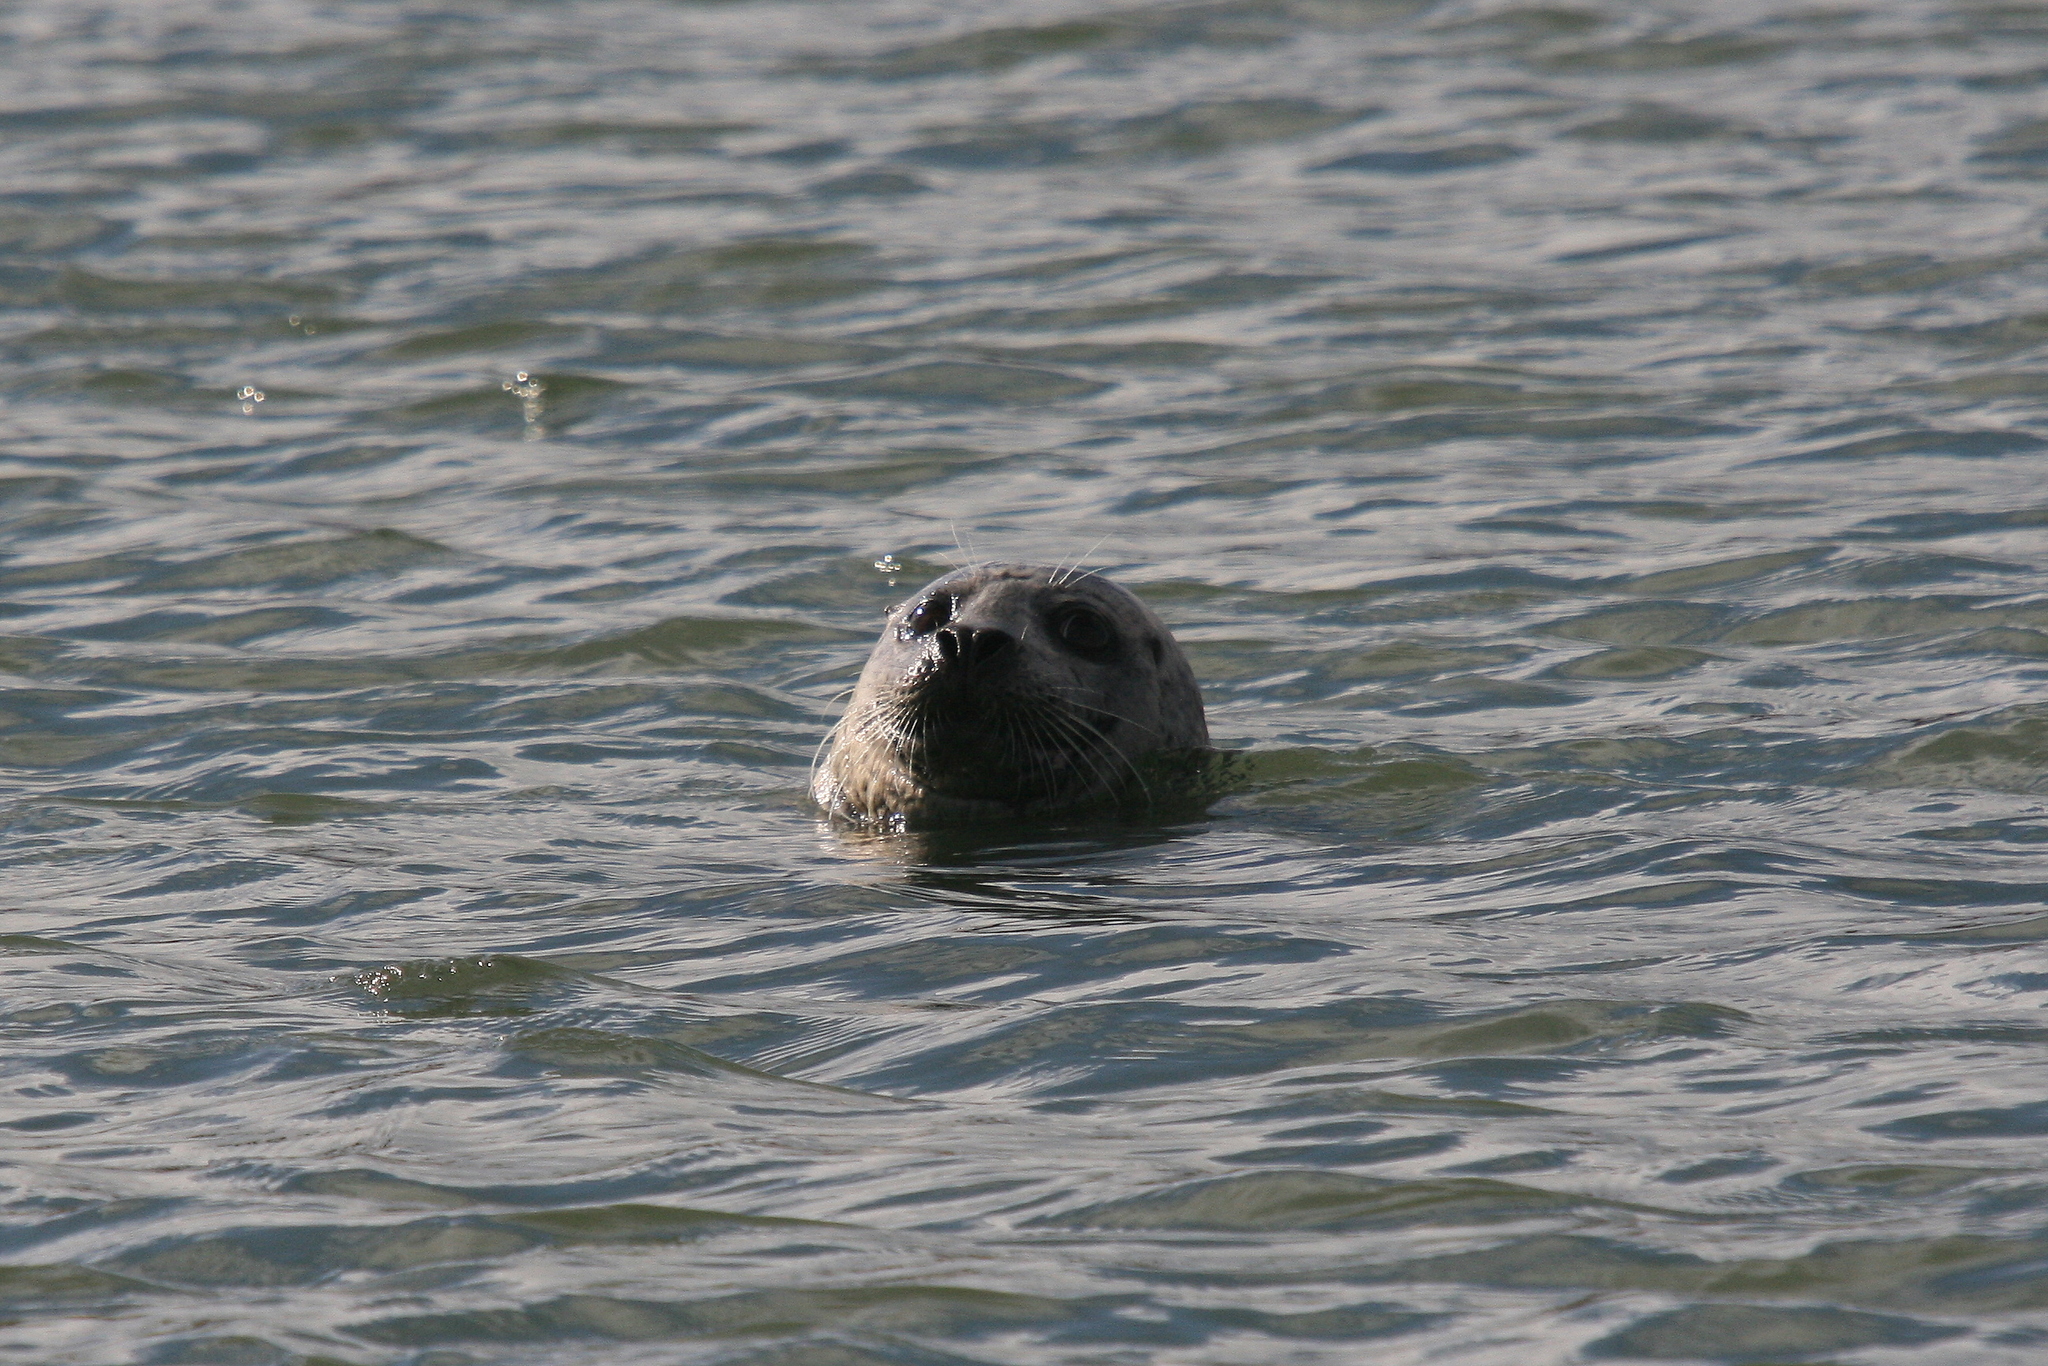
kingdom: Animalia
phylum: Chordata
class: Mammalia
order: Carnivora
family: Phocidae
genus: Phoca
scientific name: Phoca vitulina
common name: Harbor seal
